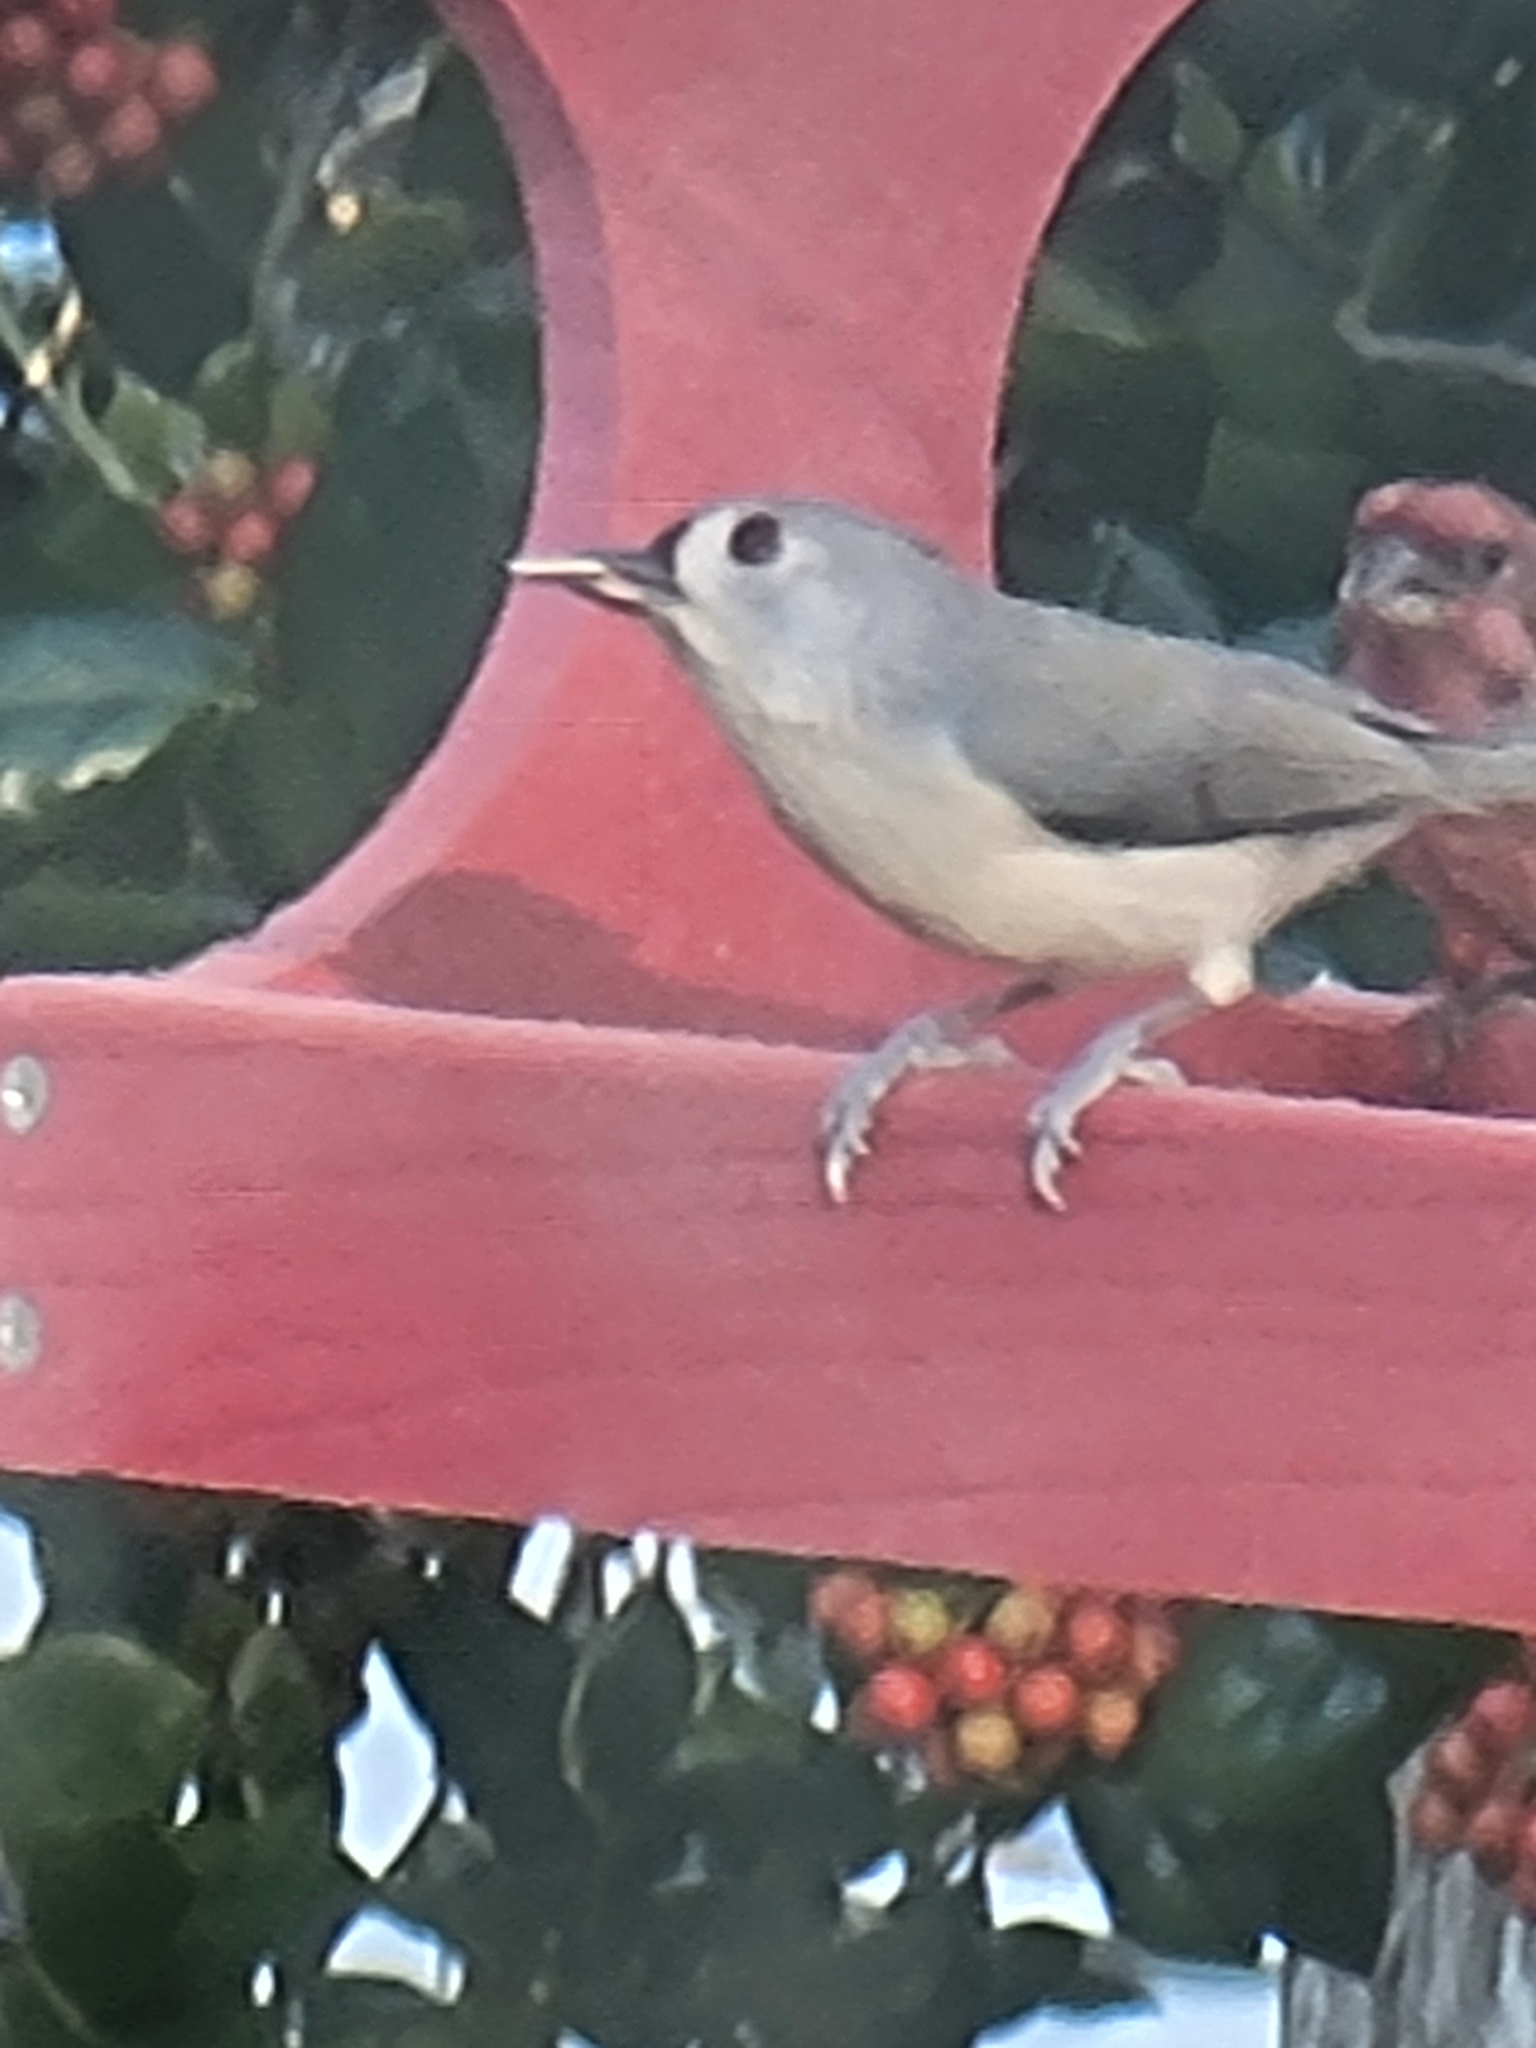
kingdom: Animalia
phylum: Chordata
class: Aves
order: Passeriformes
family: Paridae
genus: Baeolophus
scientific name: Baeolophus bicolor
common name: Tufted titmouse
